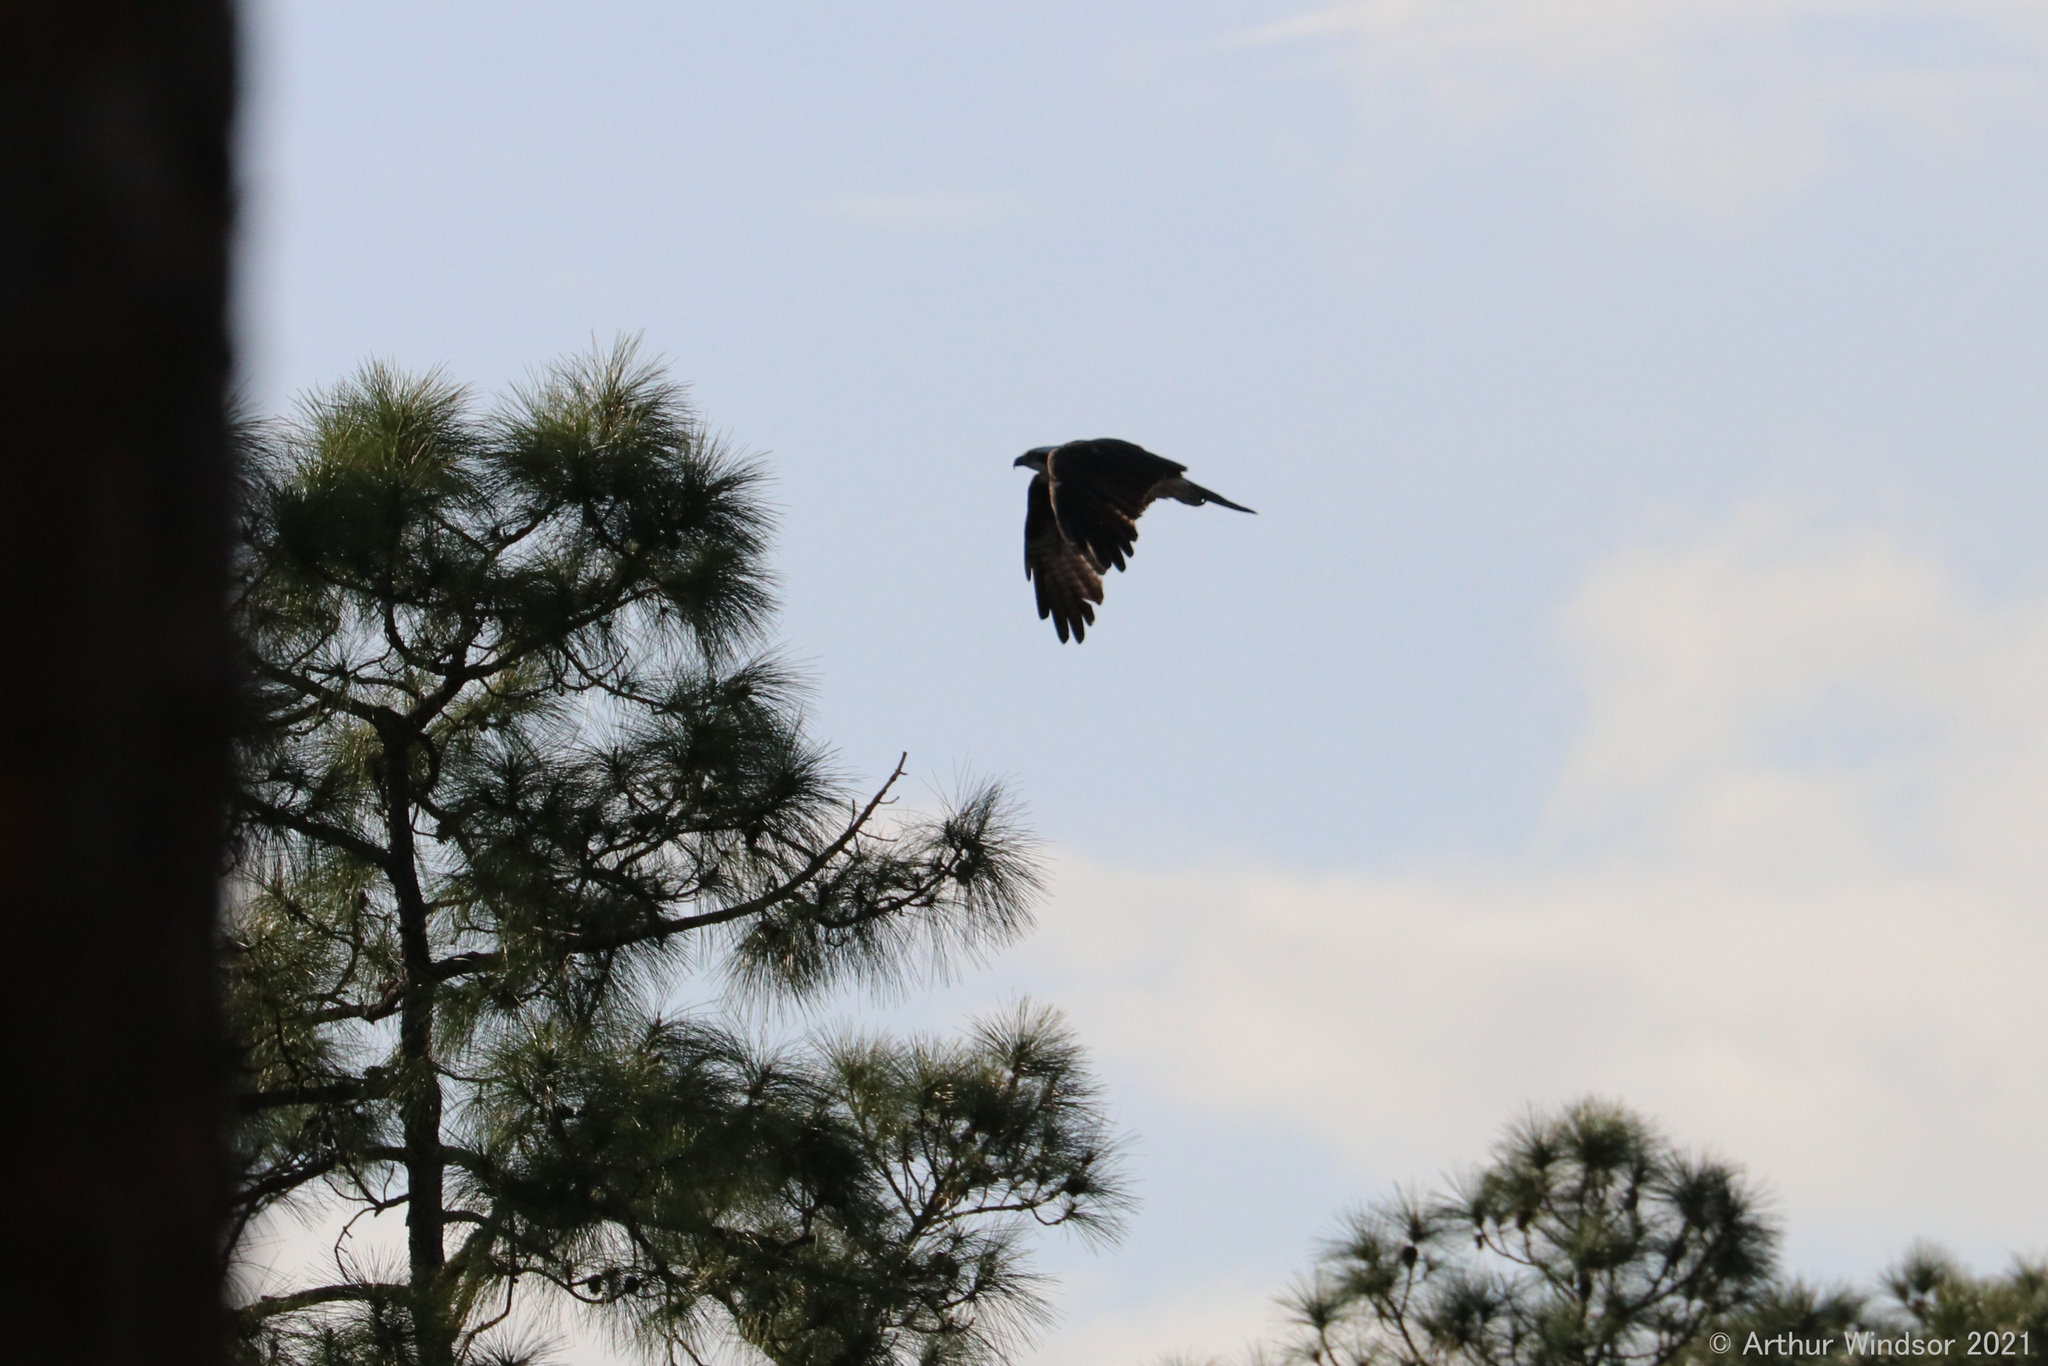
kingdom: Animalia
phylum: Chordata
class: Aves
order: Accipitriformes
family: Pandionidae
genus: Pandion
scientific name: Pandion haliaetus
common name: Osprey
